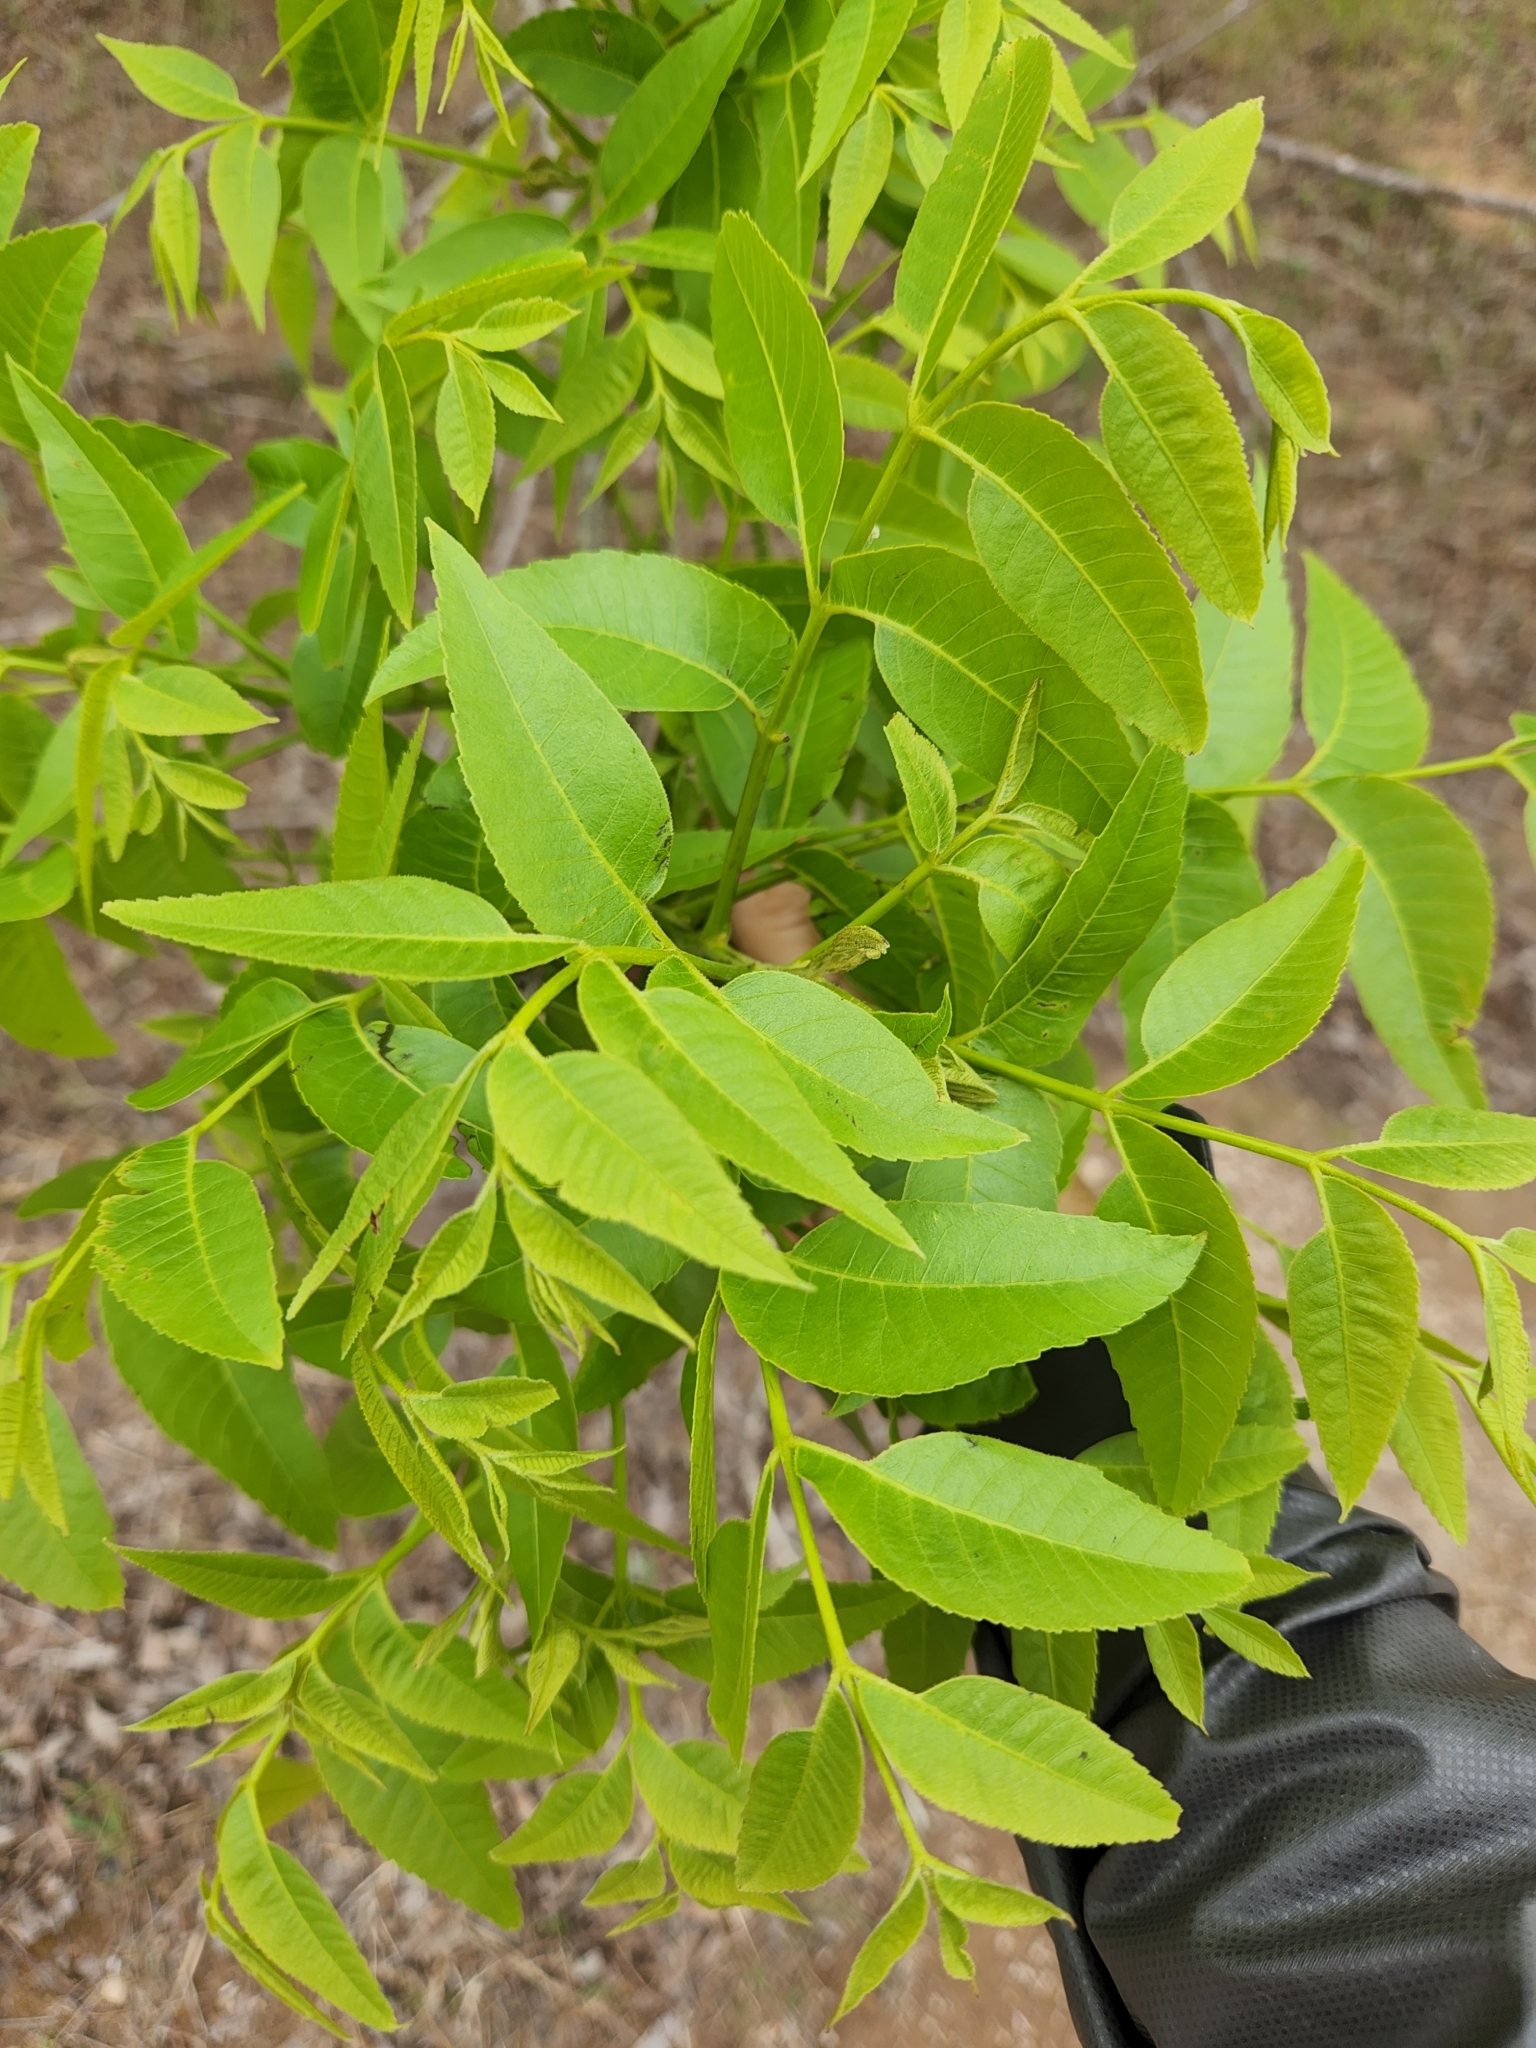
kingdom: Plantae
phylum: Tracheophyta
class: Magnoliopsida
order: Fagales
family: Juglandaceae
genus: Carya
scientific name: Carya illinoinensis
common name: Pecan
